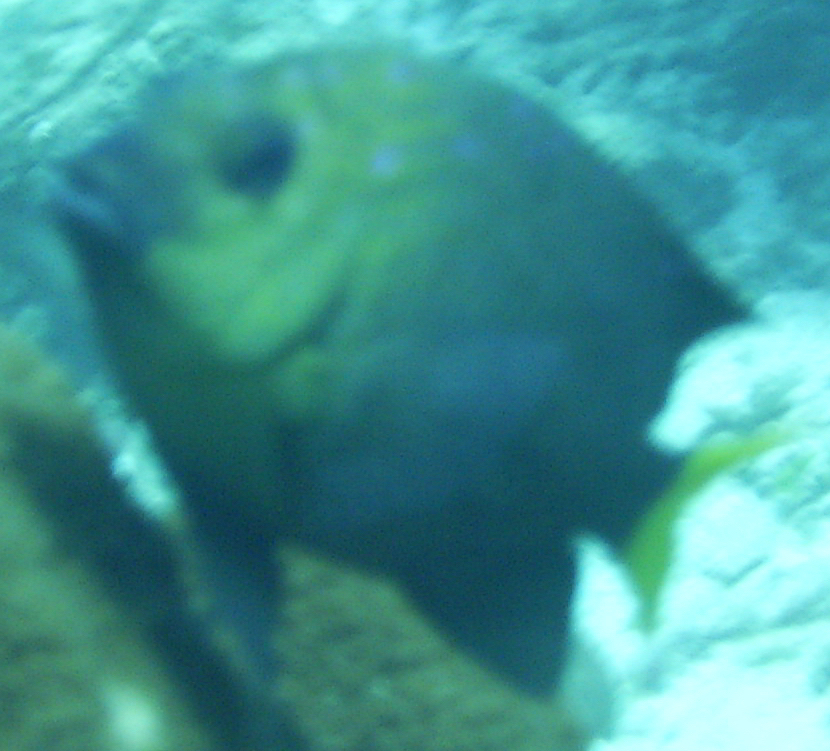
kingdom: Animalia
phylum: Chordata
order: Perciformes
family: Pomacentridae
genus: Microspathodon
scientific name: Microspathodon chrysurus
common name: Yellowtail damselfish
